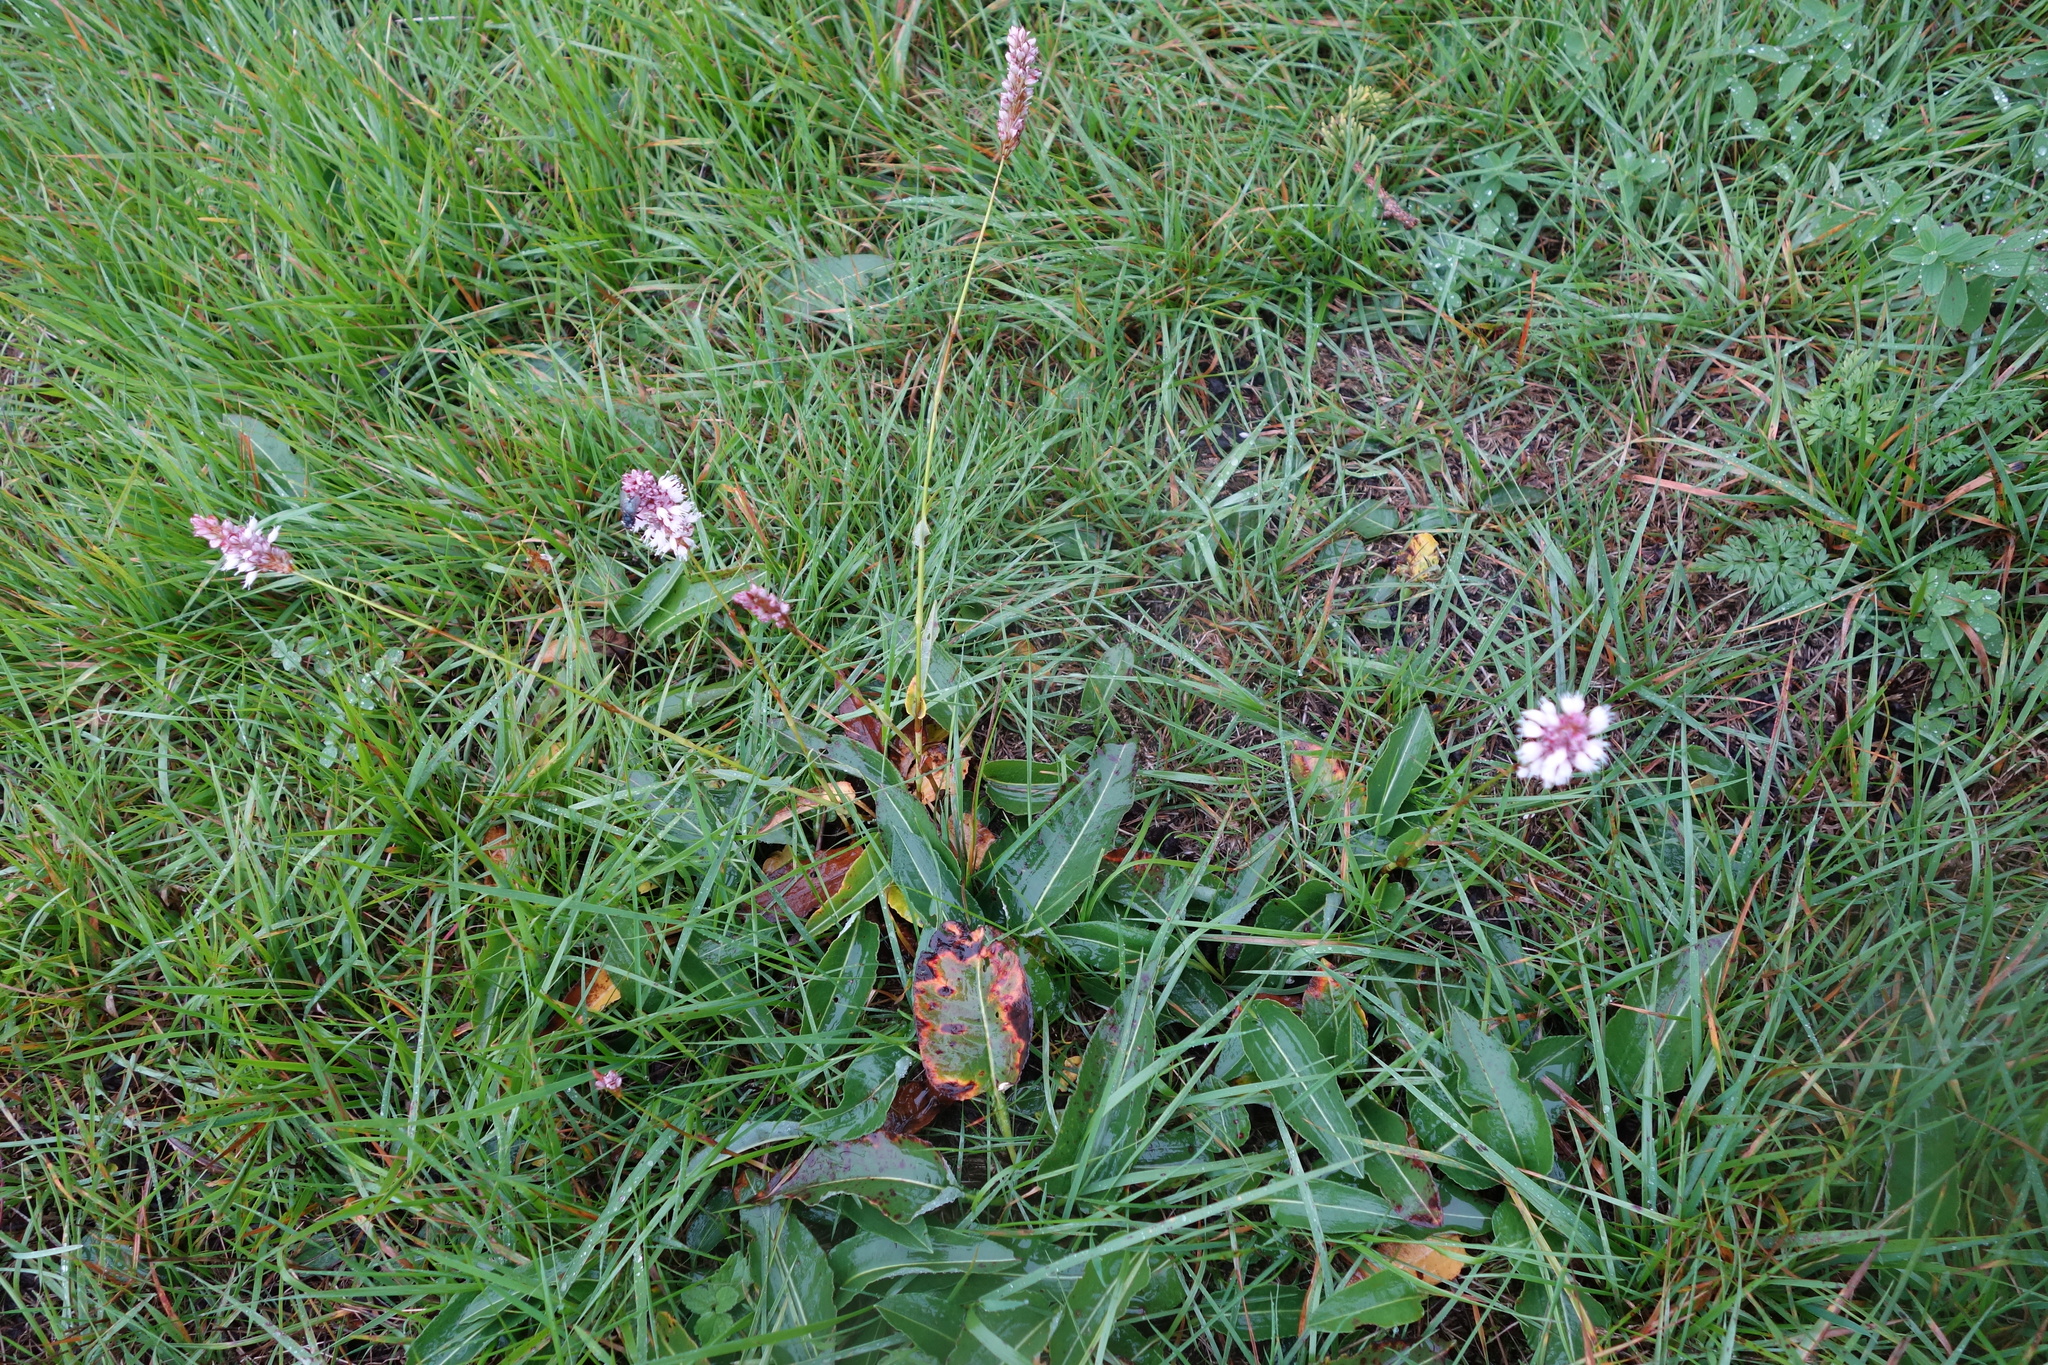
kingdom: Plantae
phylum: Tracheophyta
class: Magnoliopsida
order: Caryophyllales
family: Polygonaceae
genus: Bistorta
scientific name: Bistorta officinalis
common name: Common bistort
